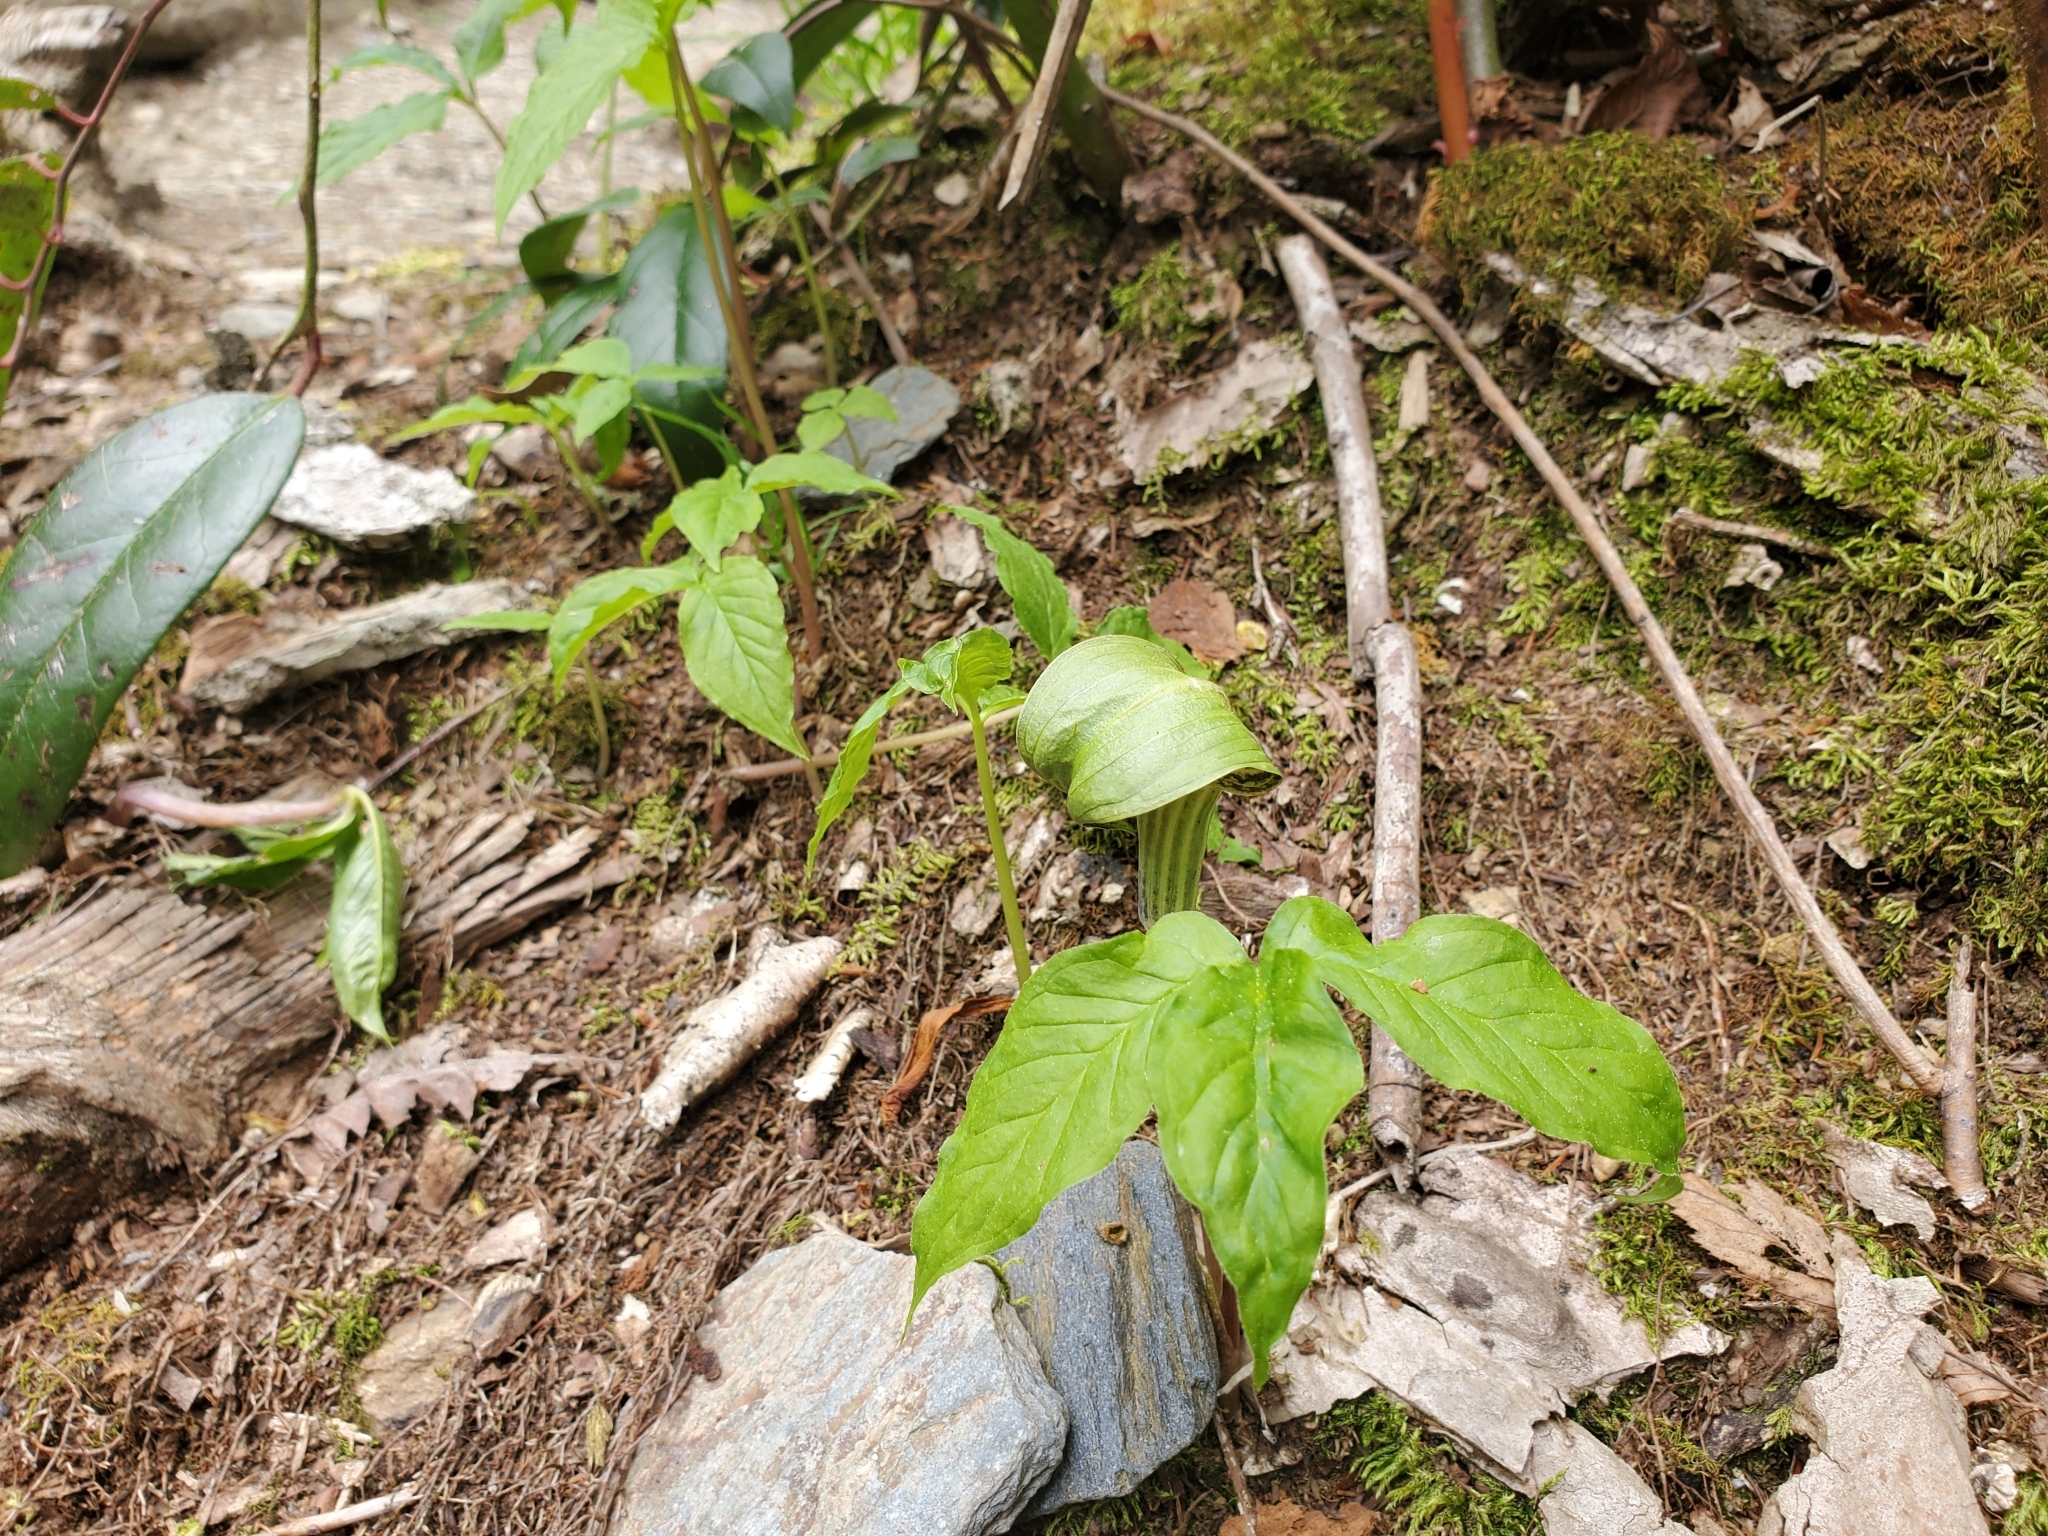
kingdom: Plantae
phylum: Tracheophyta
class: Liliopsida
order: Alismatales
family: Araceae
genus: Arisaema
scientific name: Arisaema triphyllum
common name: Jack-in-the-pulpit
